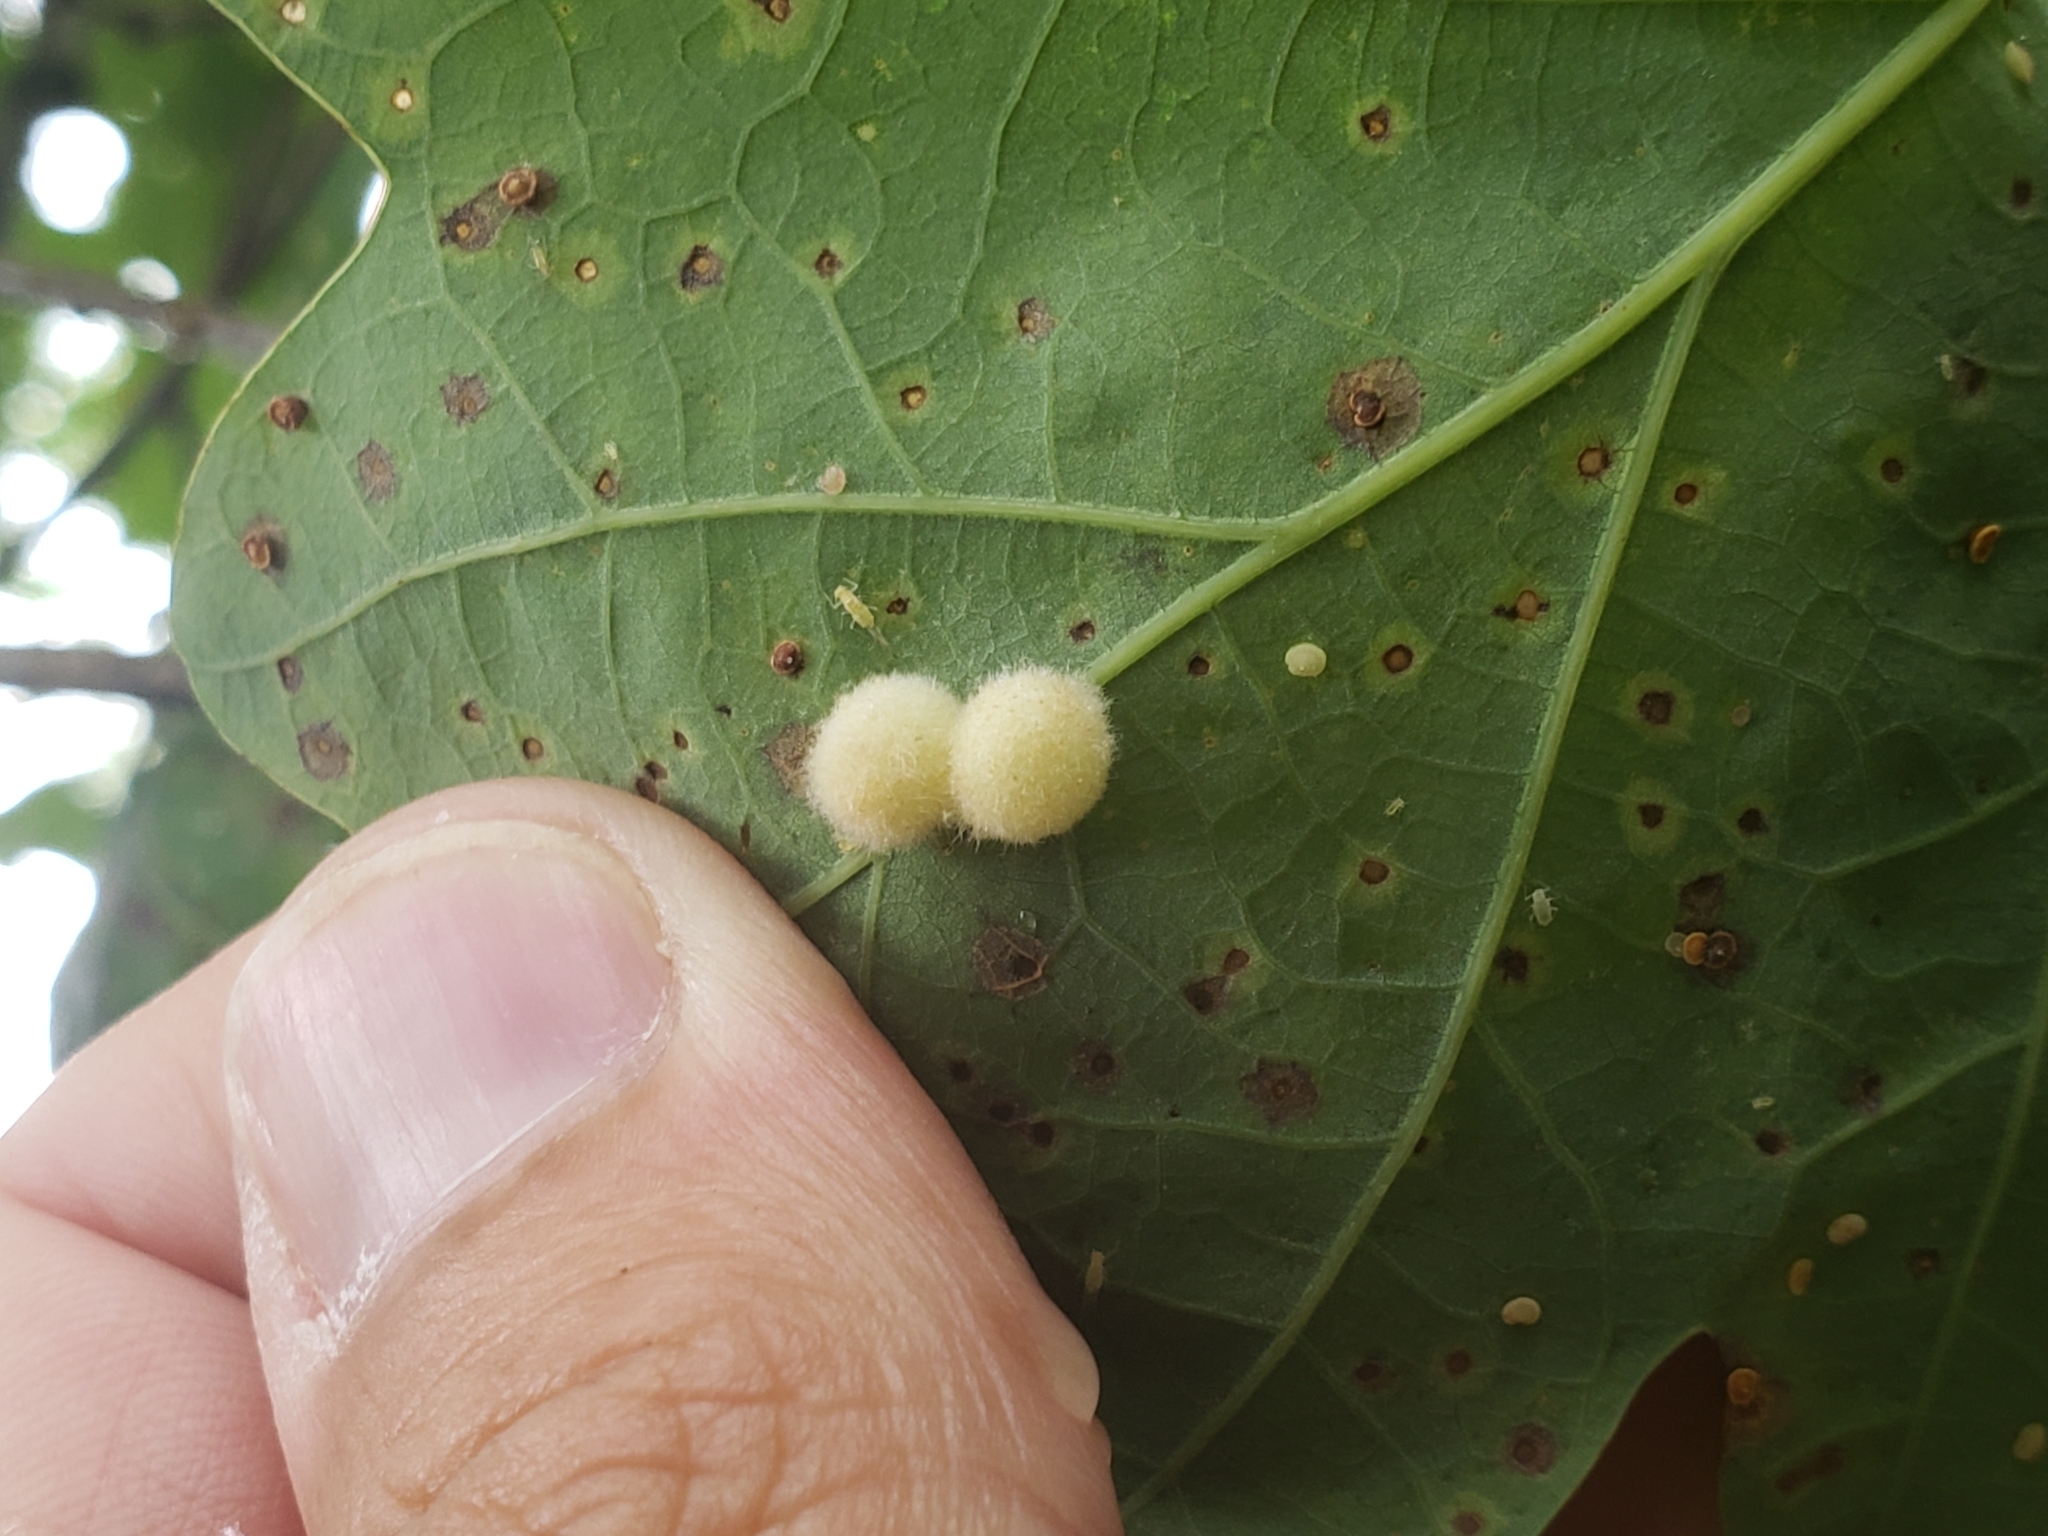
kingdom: Animalia
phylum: Arthropoda
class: Insecta
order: Hymenoptera
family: Cynipidae
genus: Philonix
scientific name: Philonix fulvicollis
